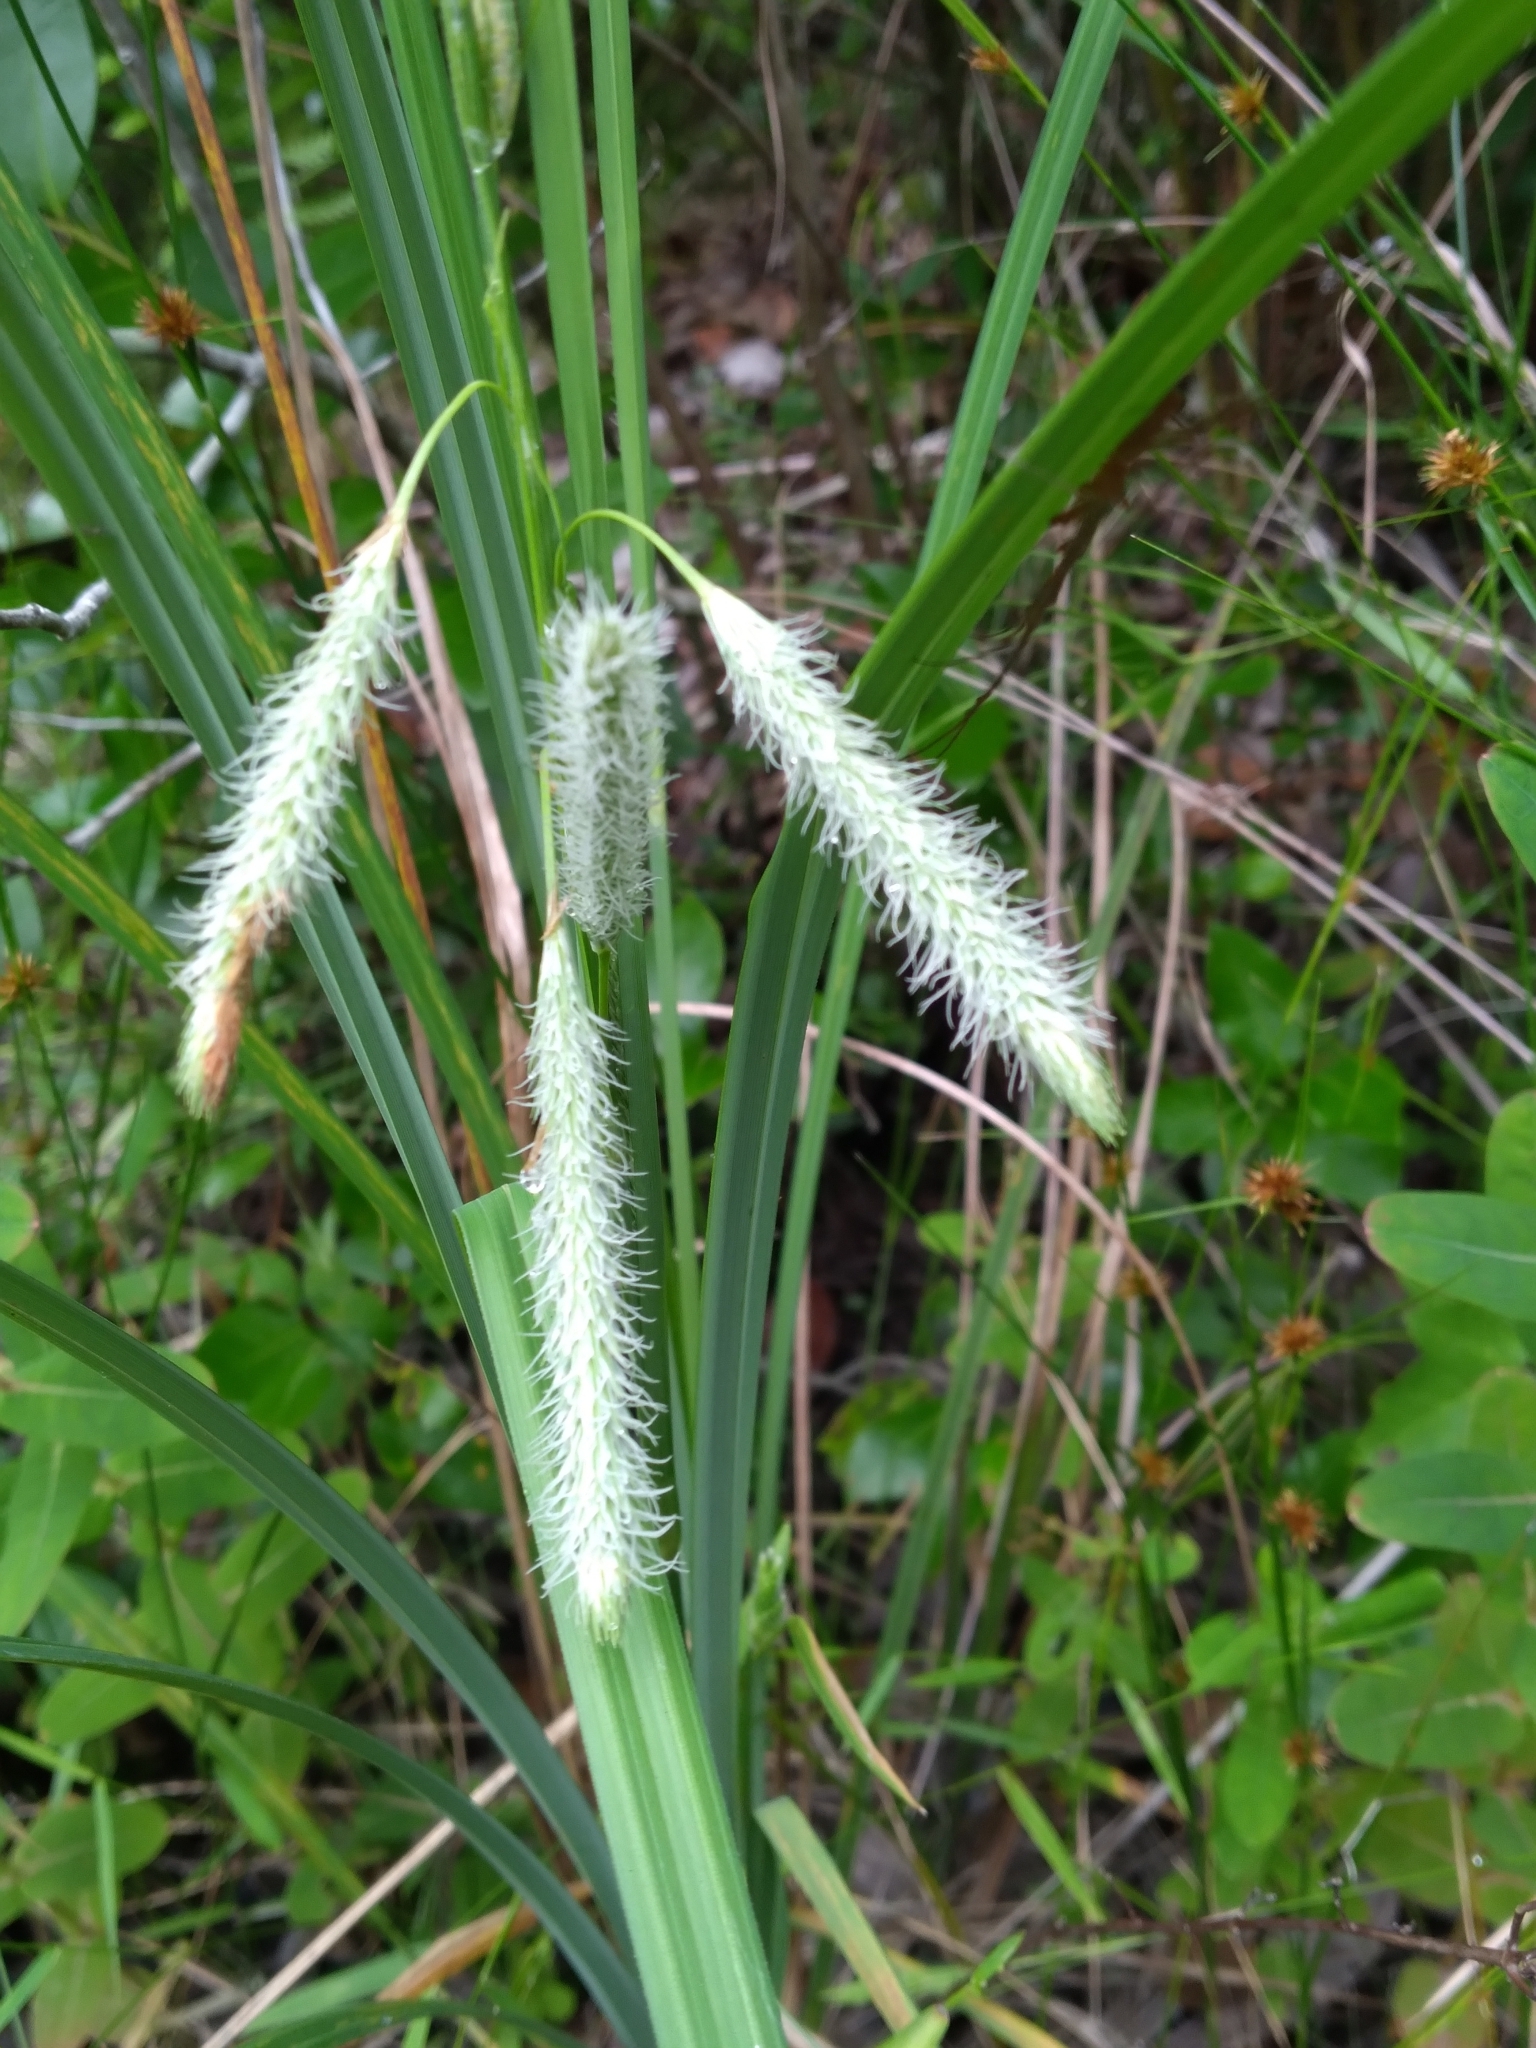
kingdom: Plantae
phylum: Tracheophyta
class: Liliopsida
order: Poales
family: Cyperaceae
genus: Carex
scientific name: Carex glaucescens
